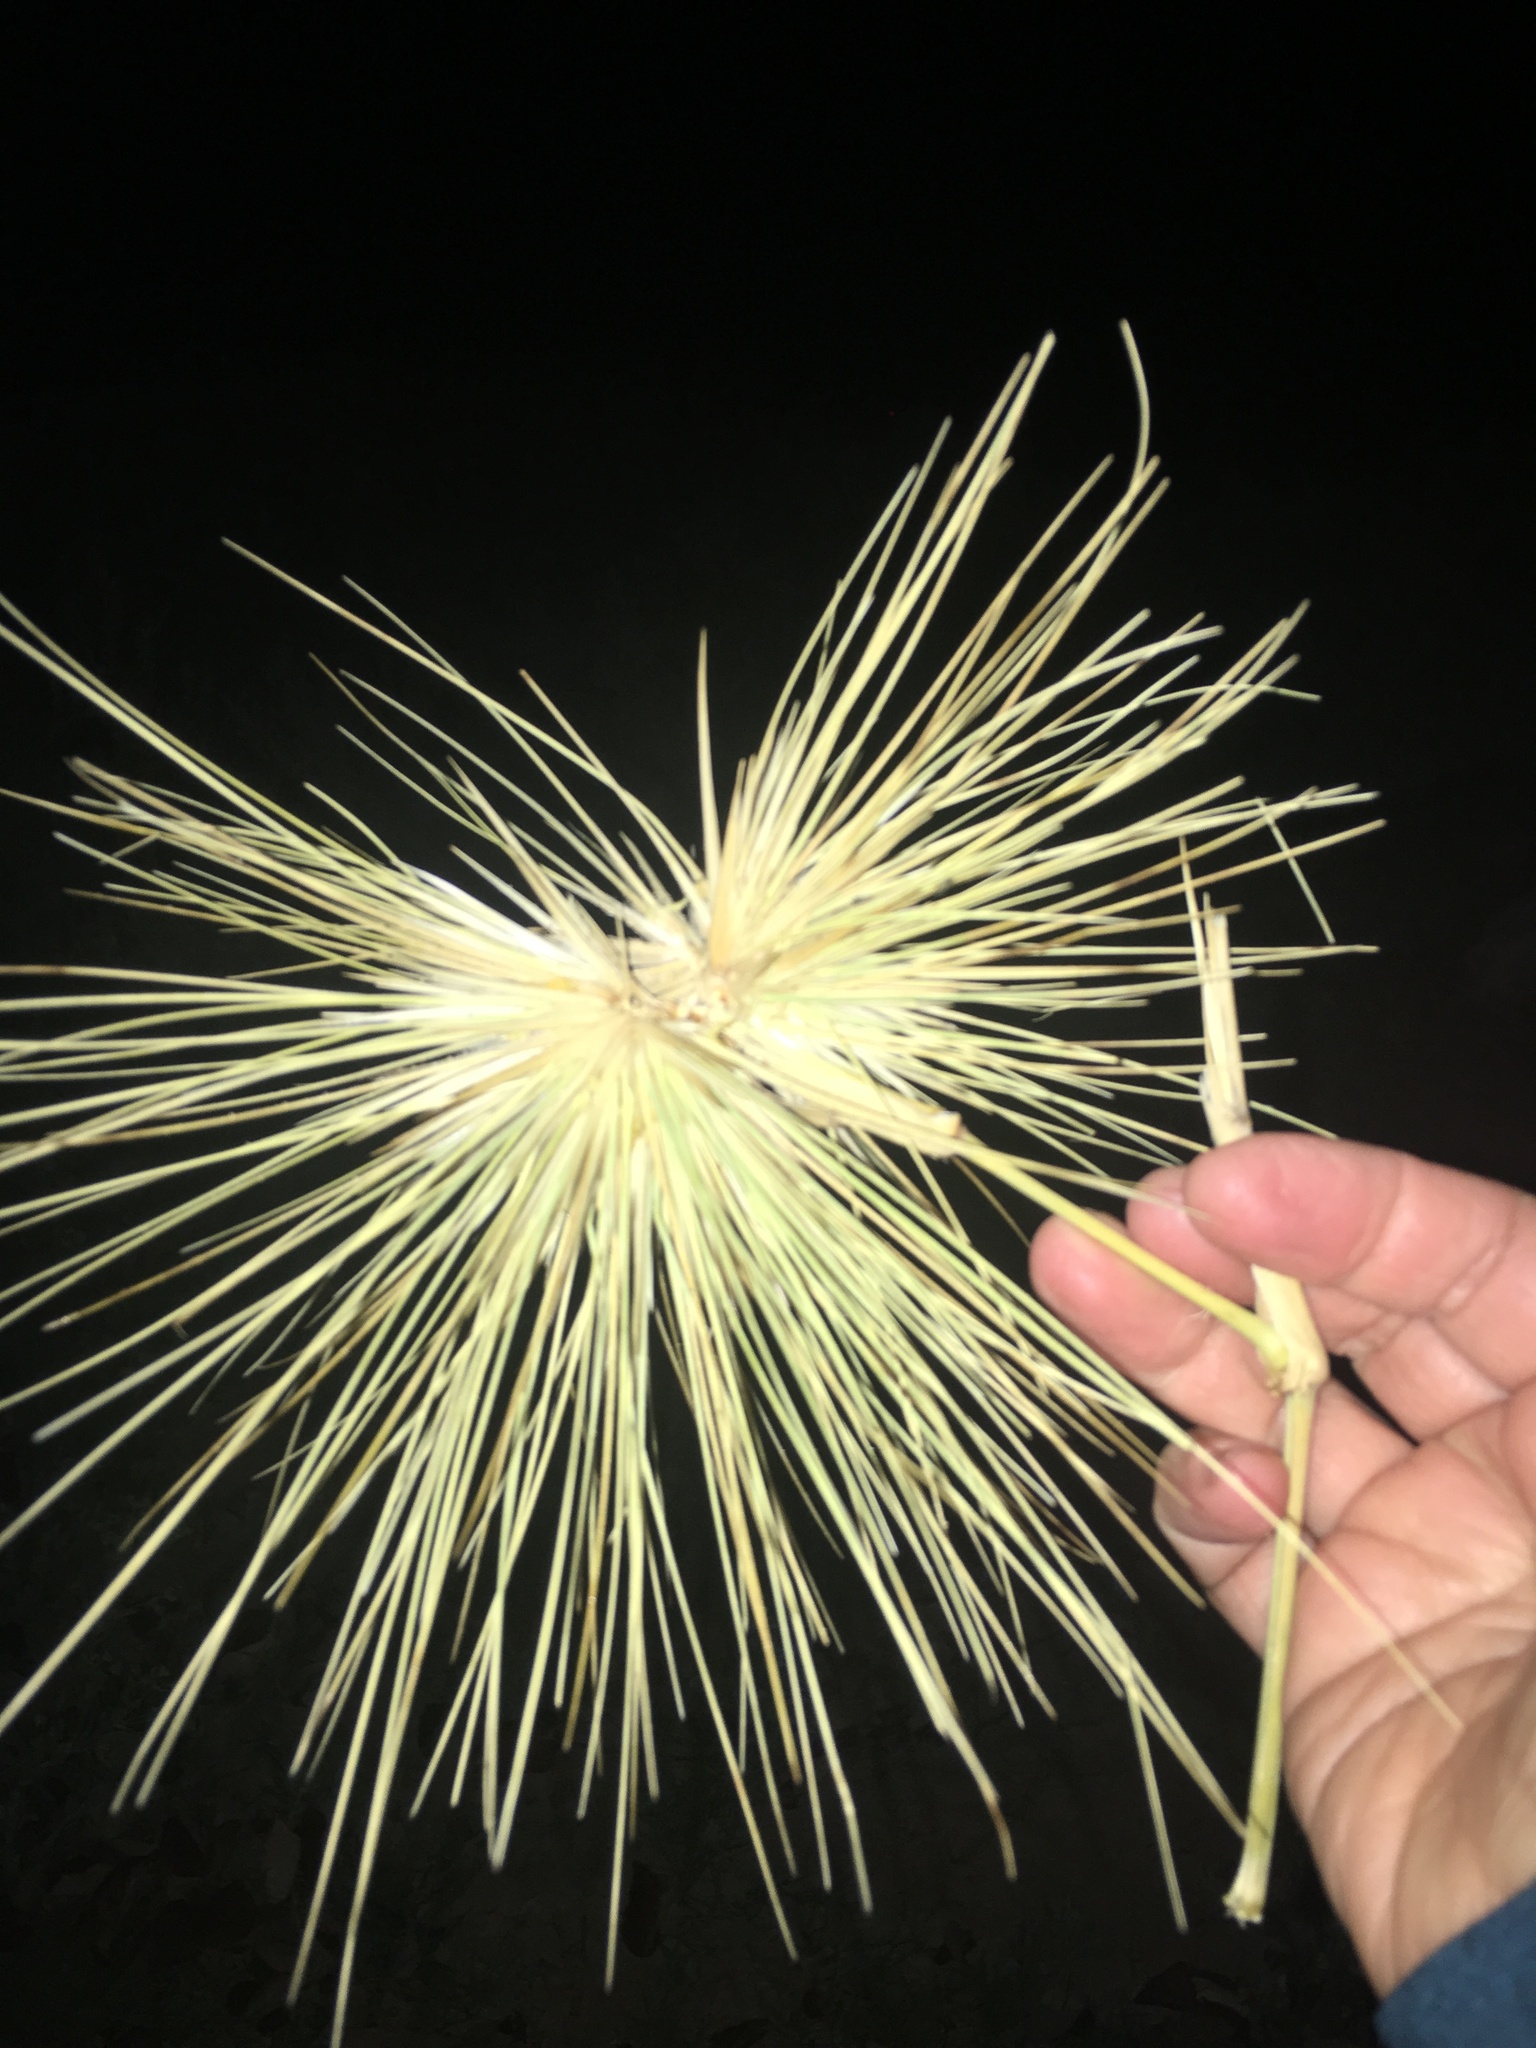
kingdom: Plantae
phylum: Tracheophyta
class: Liliopsida
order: Poales
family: Poaceae
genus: Spinifex
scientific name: Spinifex hirsutus
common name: Hairy spinifex
